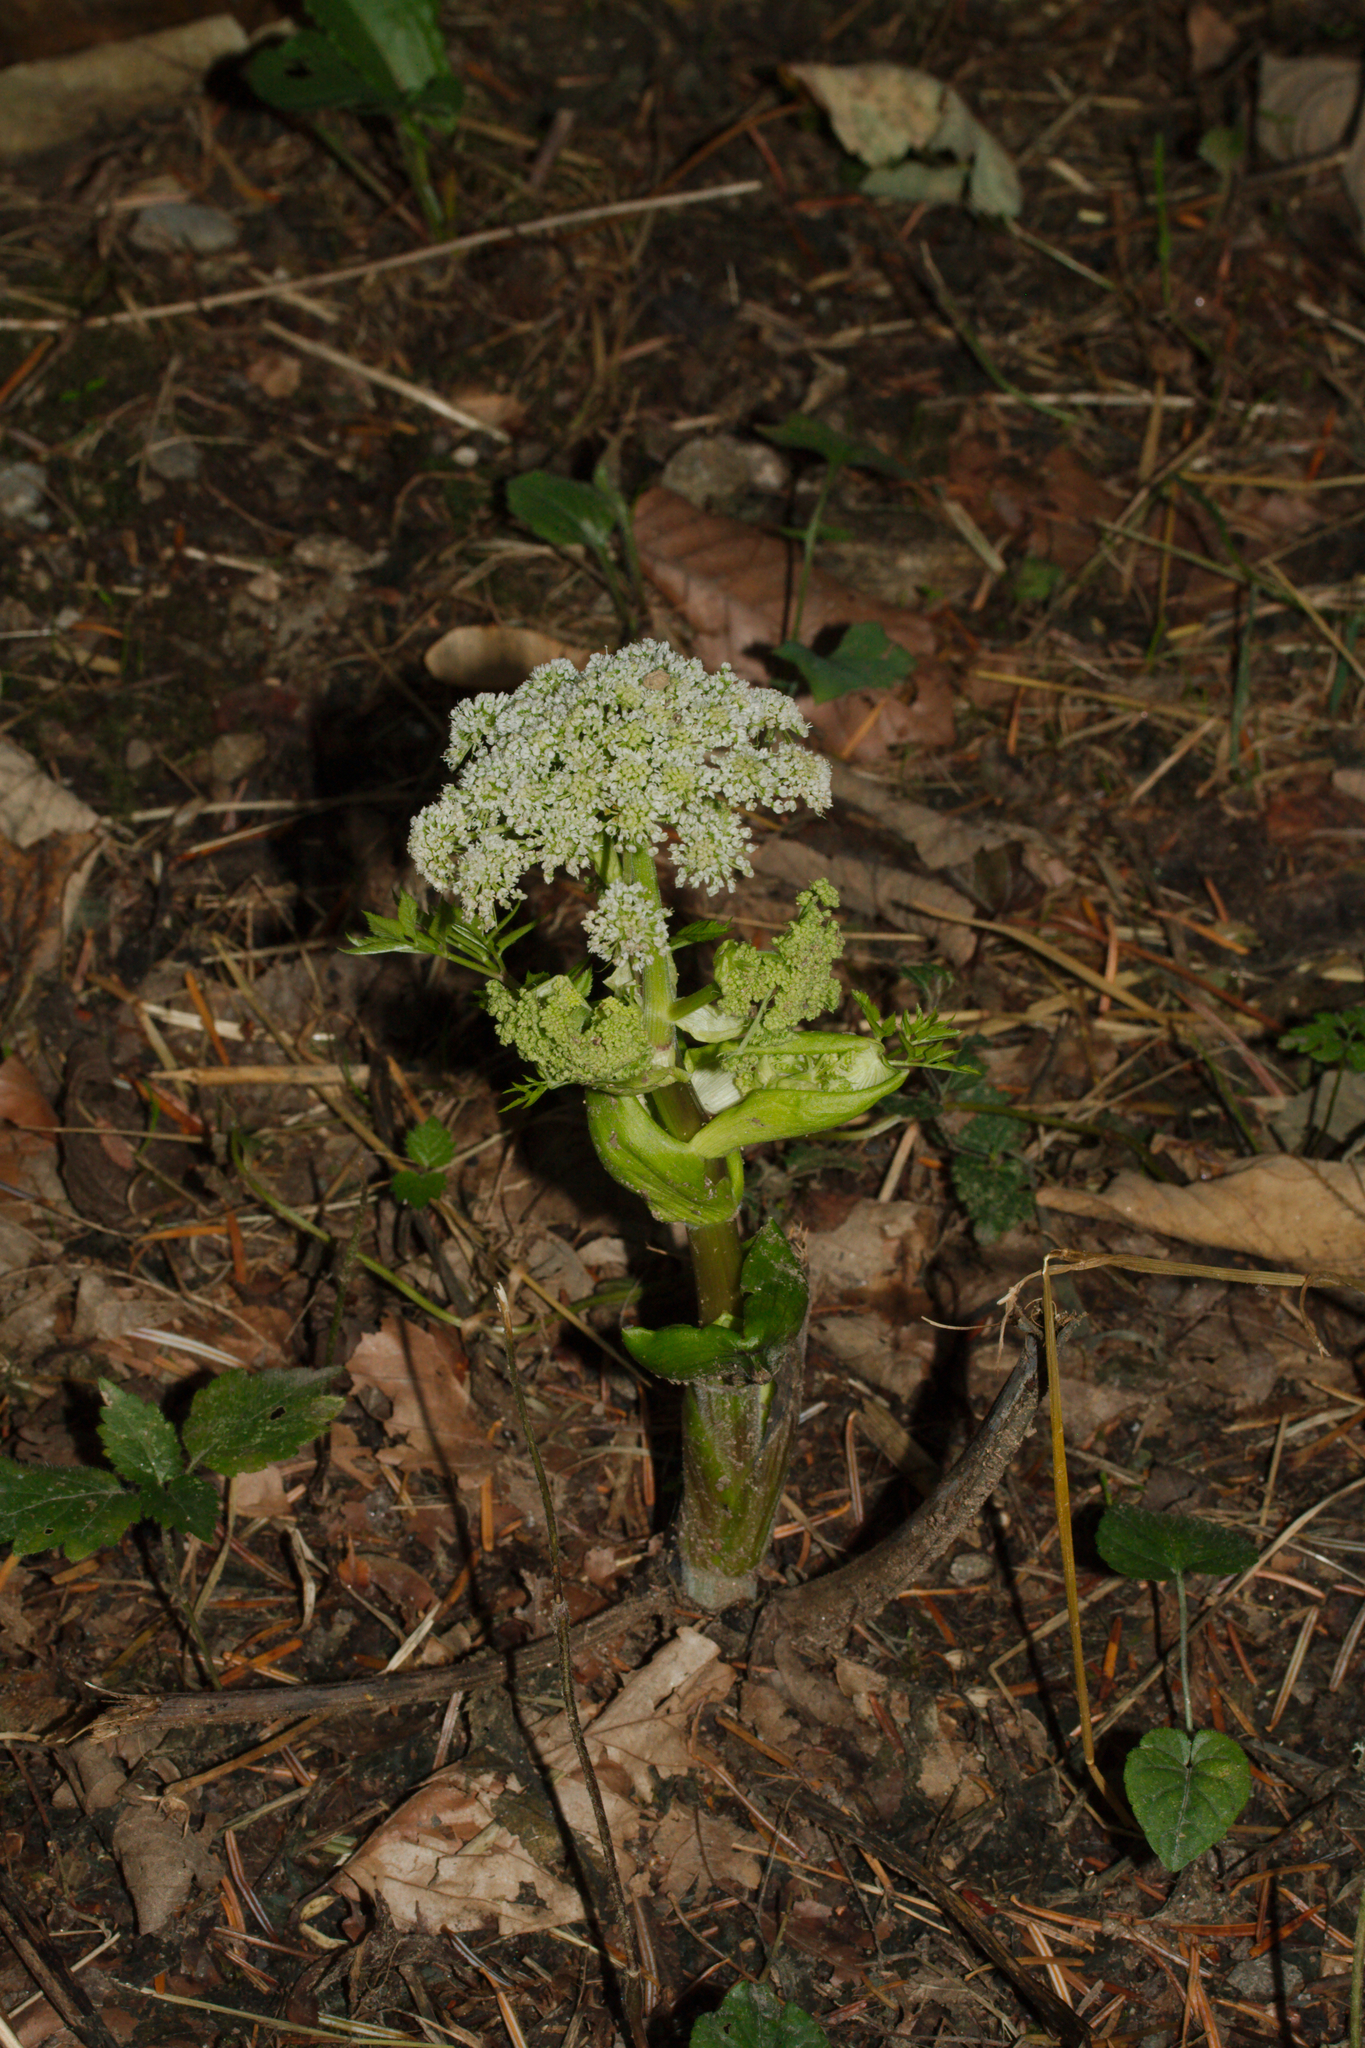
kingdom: Plantae
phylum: Tracheophyta
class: Magnoliopsida
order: Apiales
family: Apiaceae
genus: Angelica
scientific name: Angelica sylvestris
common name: Wild angelica
